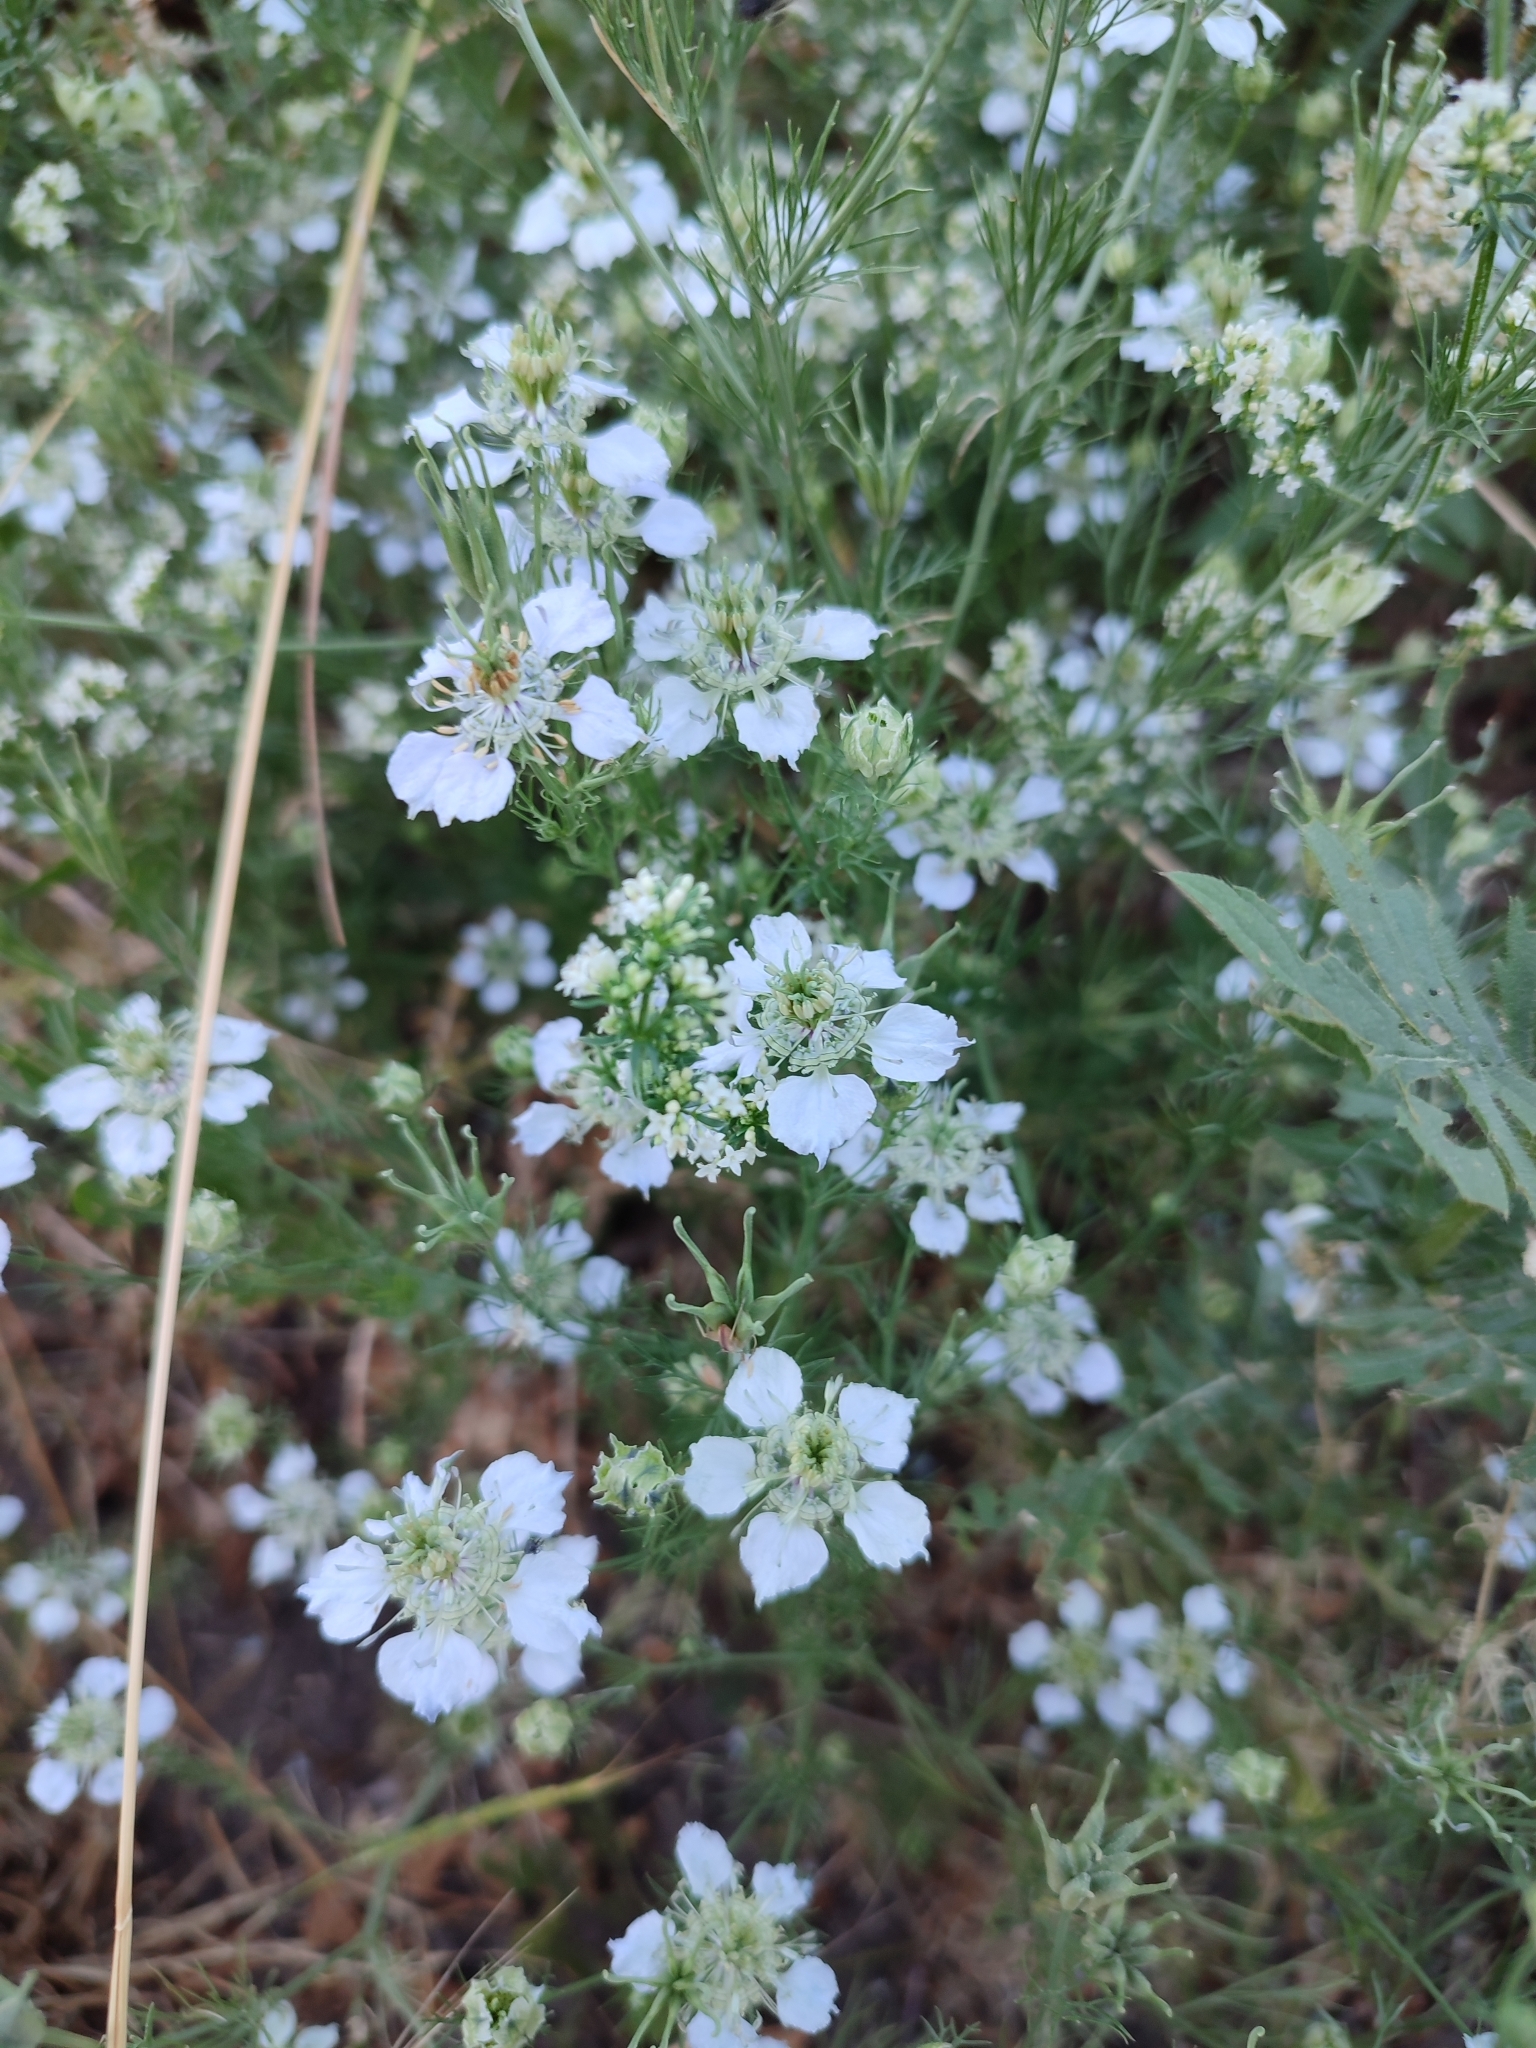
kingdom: Plantae
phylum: Tracheophyta
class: Magnoliopsida
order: Ranunculales
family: Ranunculaceae
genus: Nigella
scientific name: Nigella arvensis
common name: Wild fennel-flower
